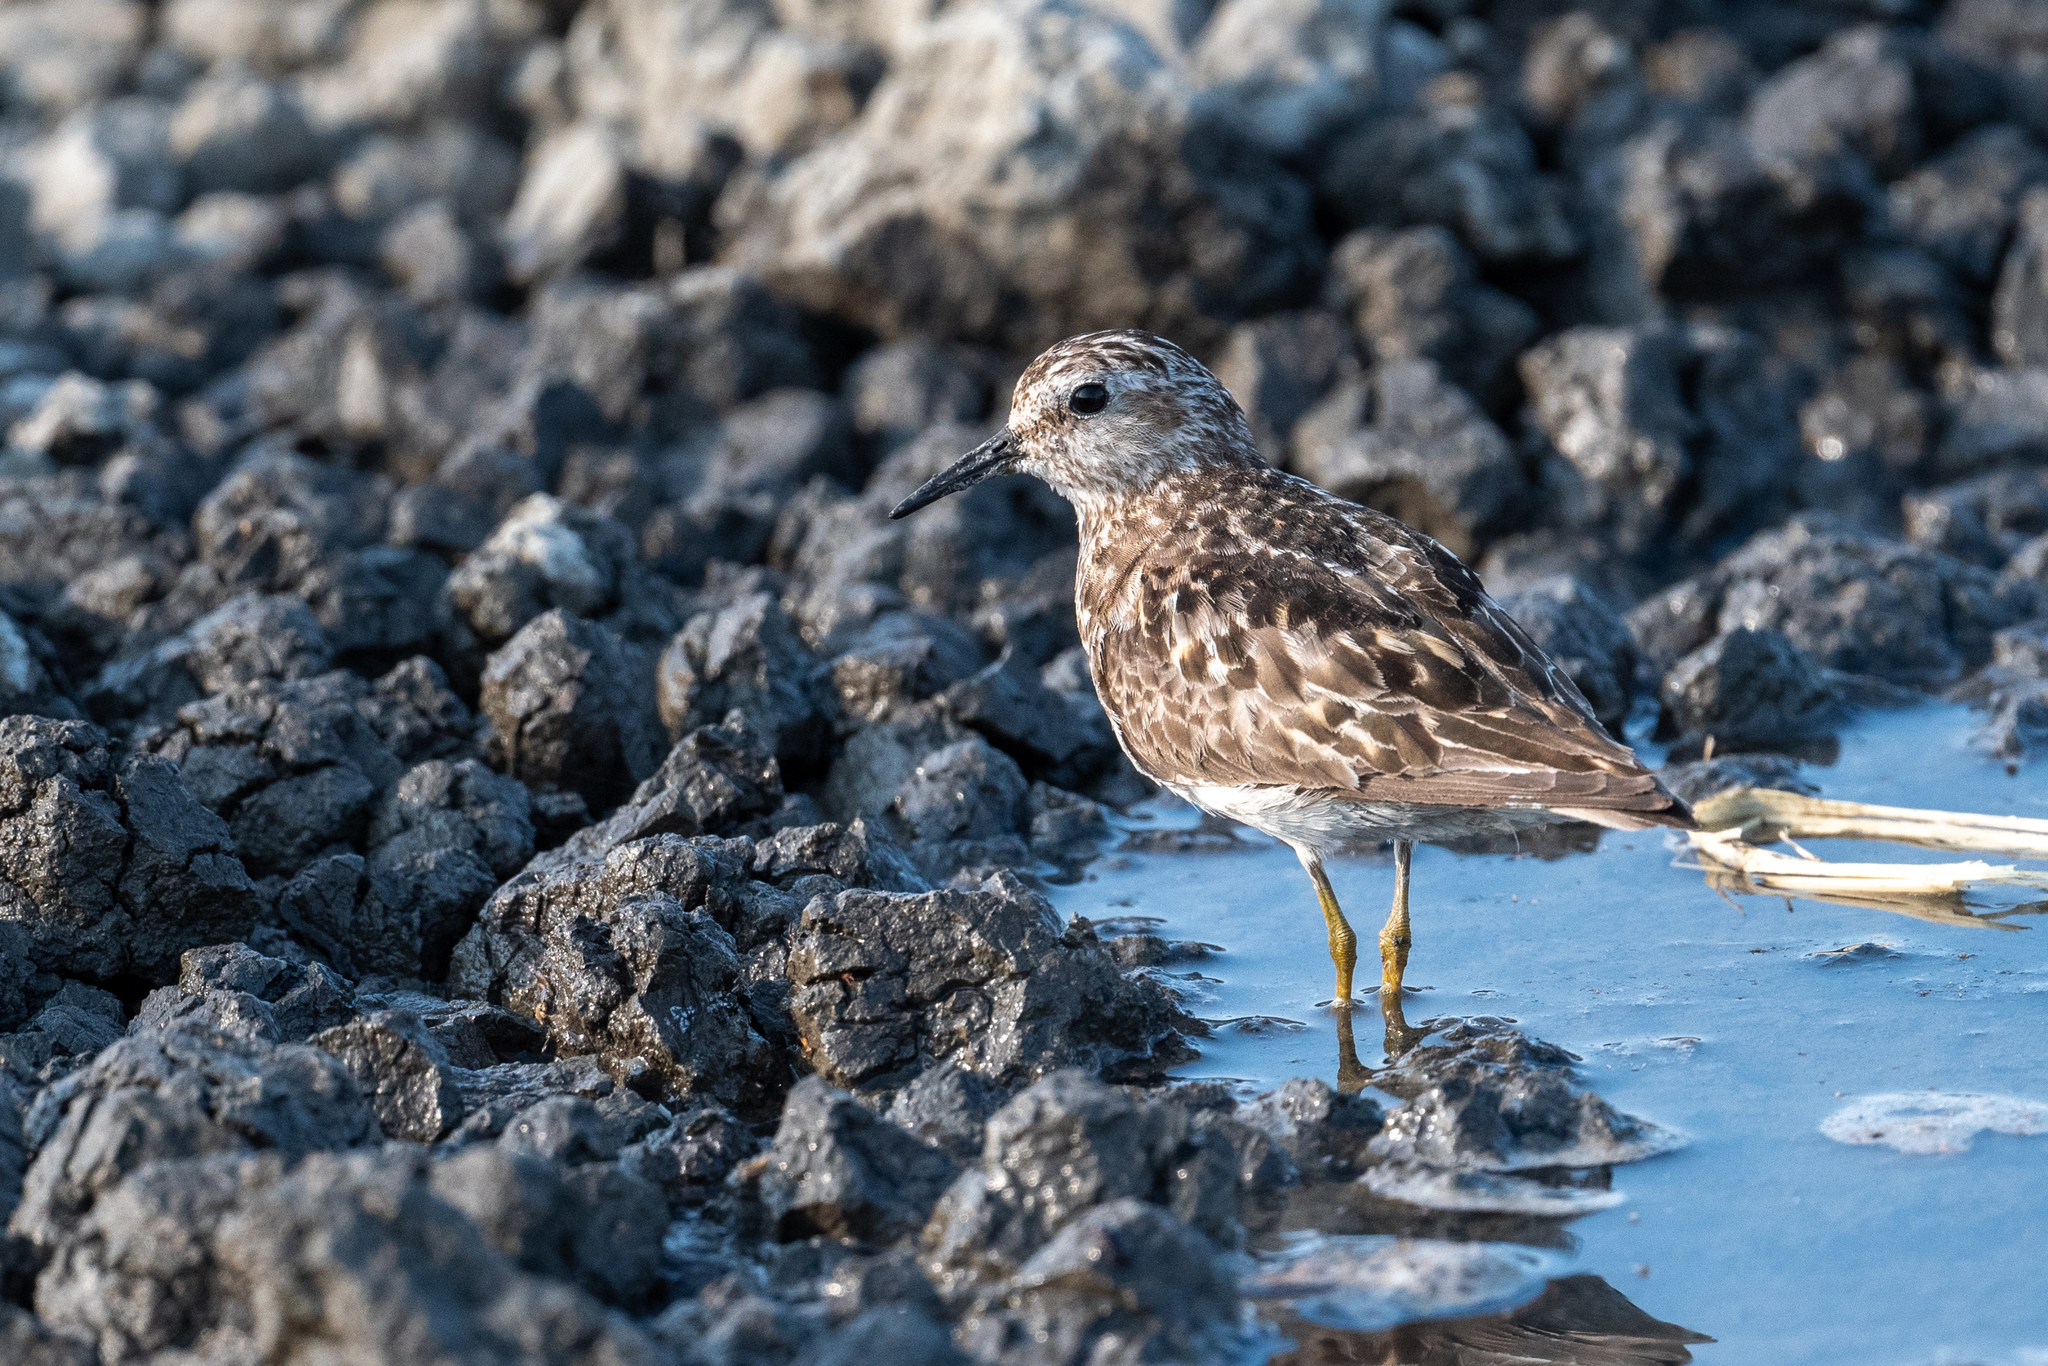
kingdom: Animalia
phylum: Chordata
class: Aves
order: Charadriiformes
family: Scolopacidae
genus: Calidris
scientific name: Calidris minutilla
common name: Least sandpiper
